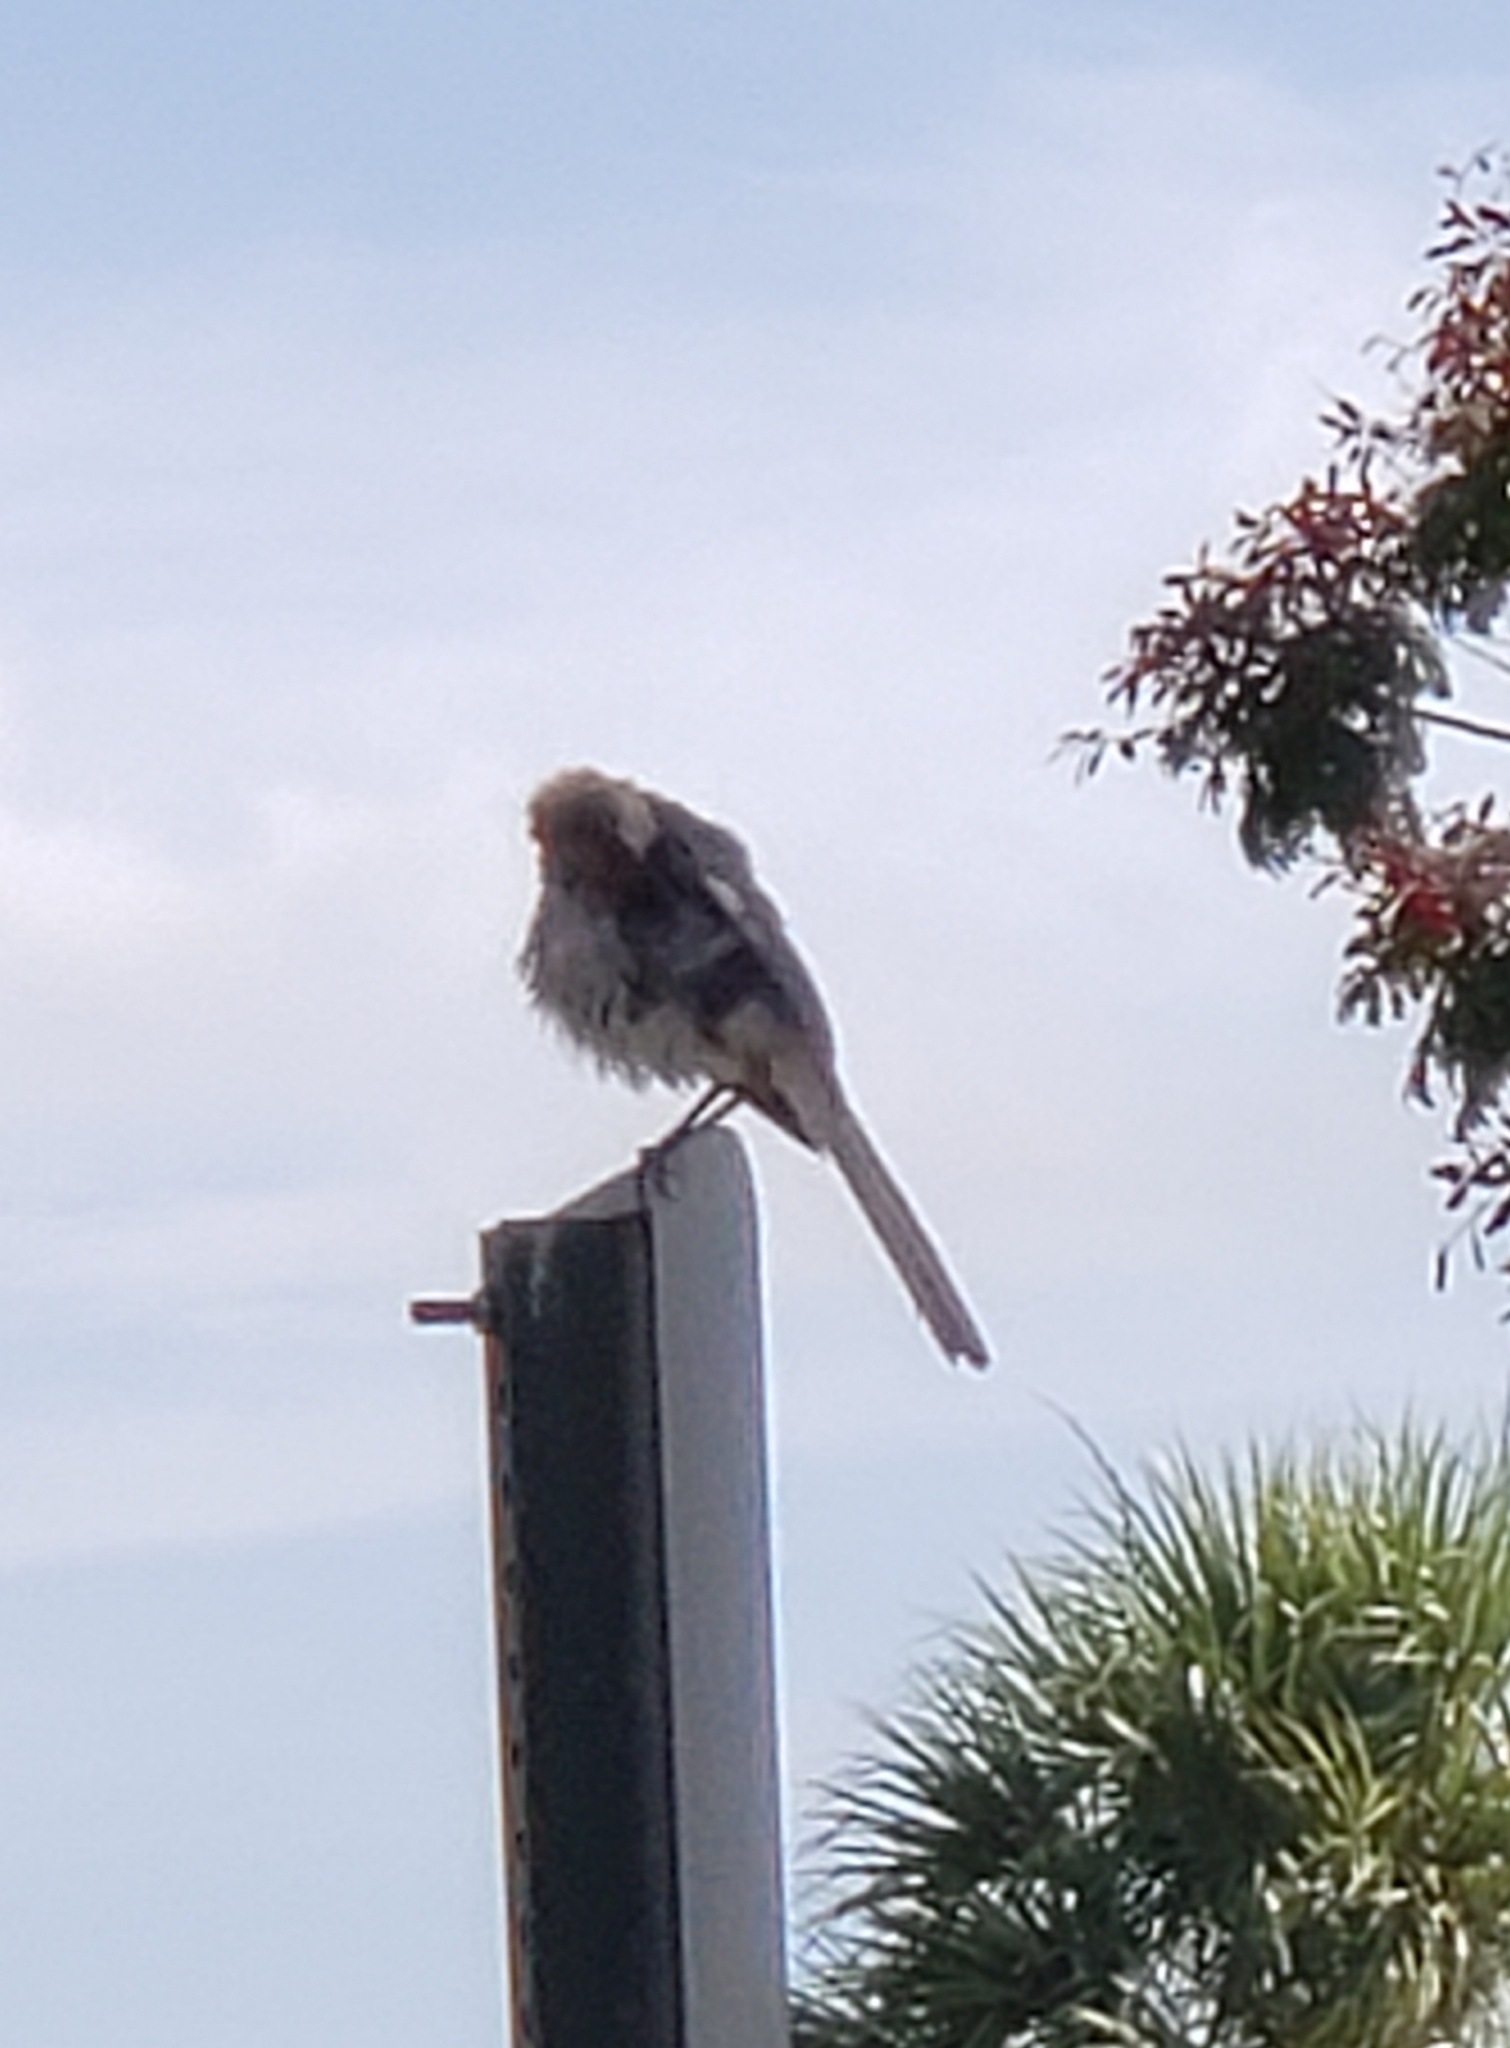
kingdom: Animalia
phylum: Chordata
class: Aves
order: Passeriformes
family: Mimidae
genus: Mimus
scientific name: Mimus polyglottos
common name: Northern mockingbird
